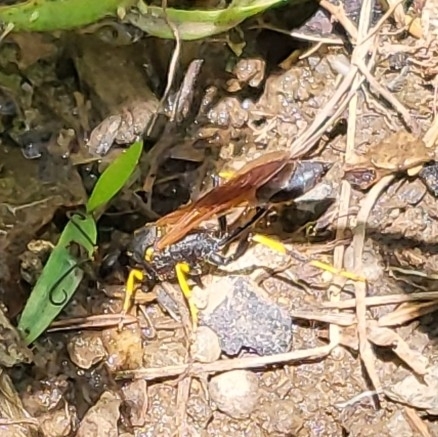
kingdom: Animalia
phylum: Arthropoda
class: Insecta
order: Hymenoptera
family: Sphecidae
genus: Sceliphron
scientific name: Sceliphron caementarium
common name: Mud dauber
